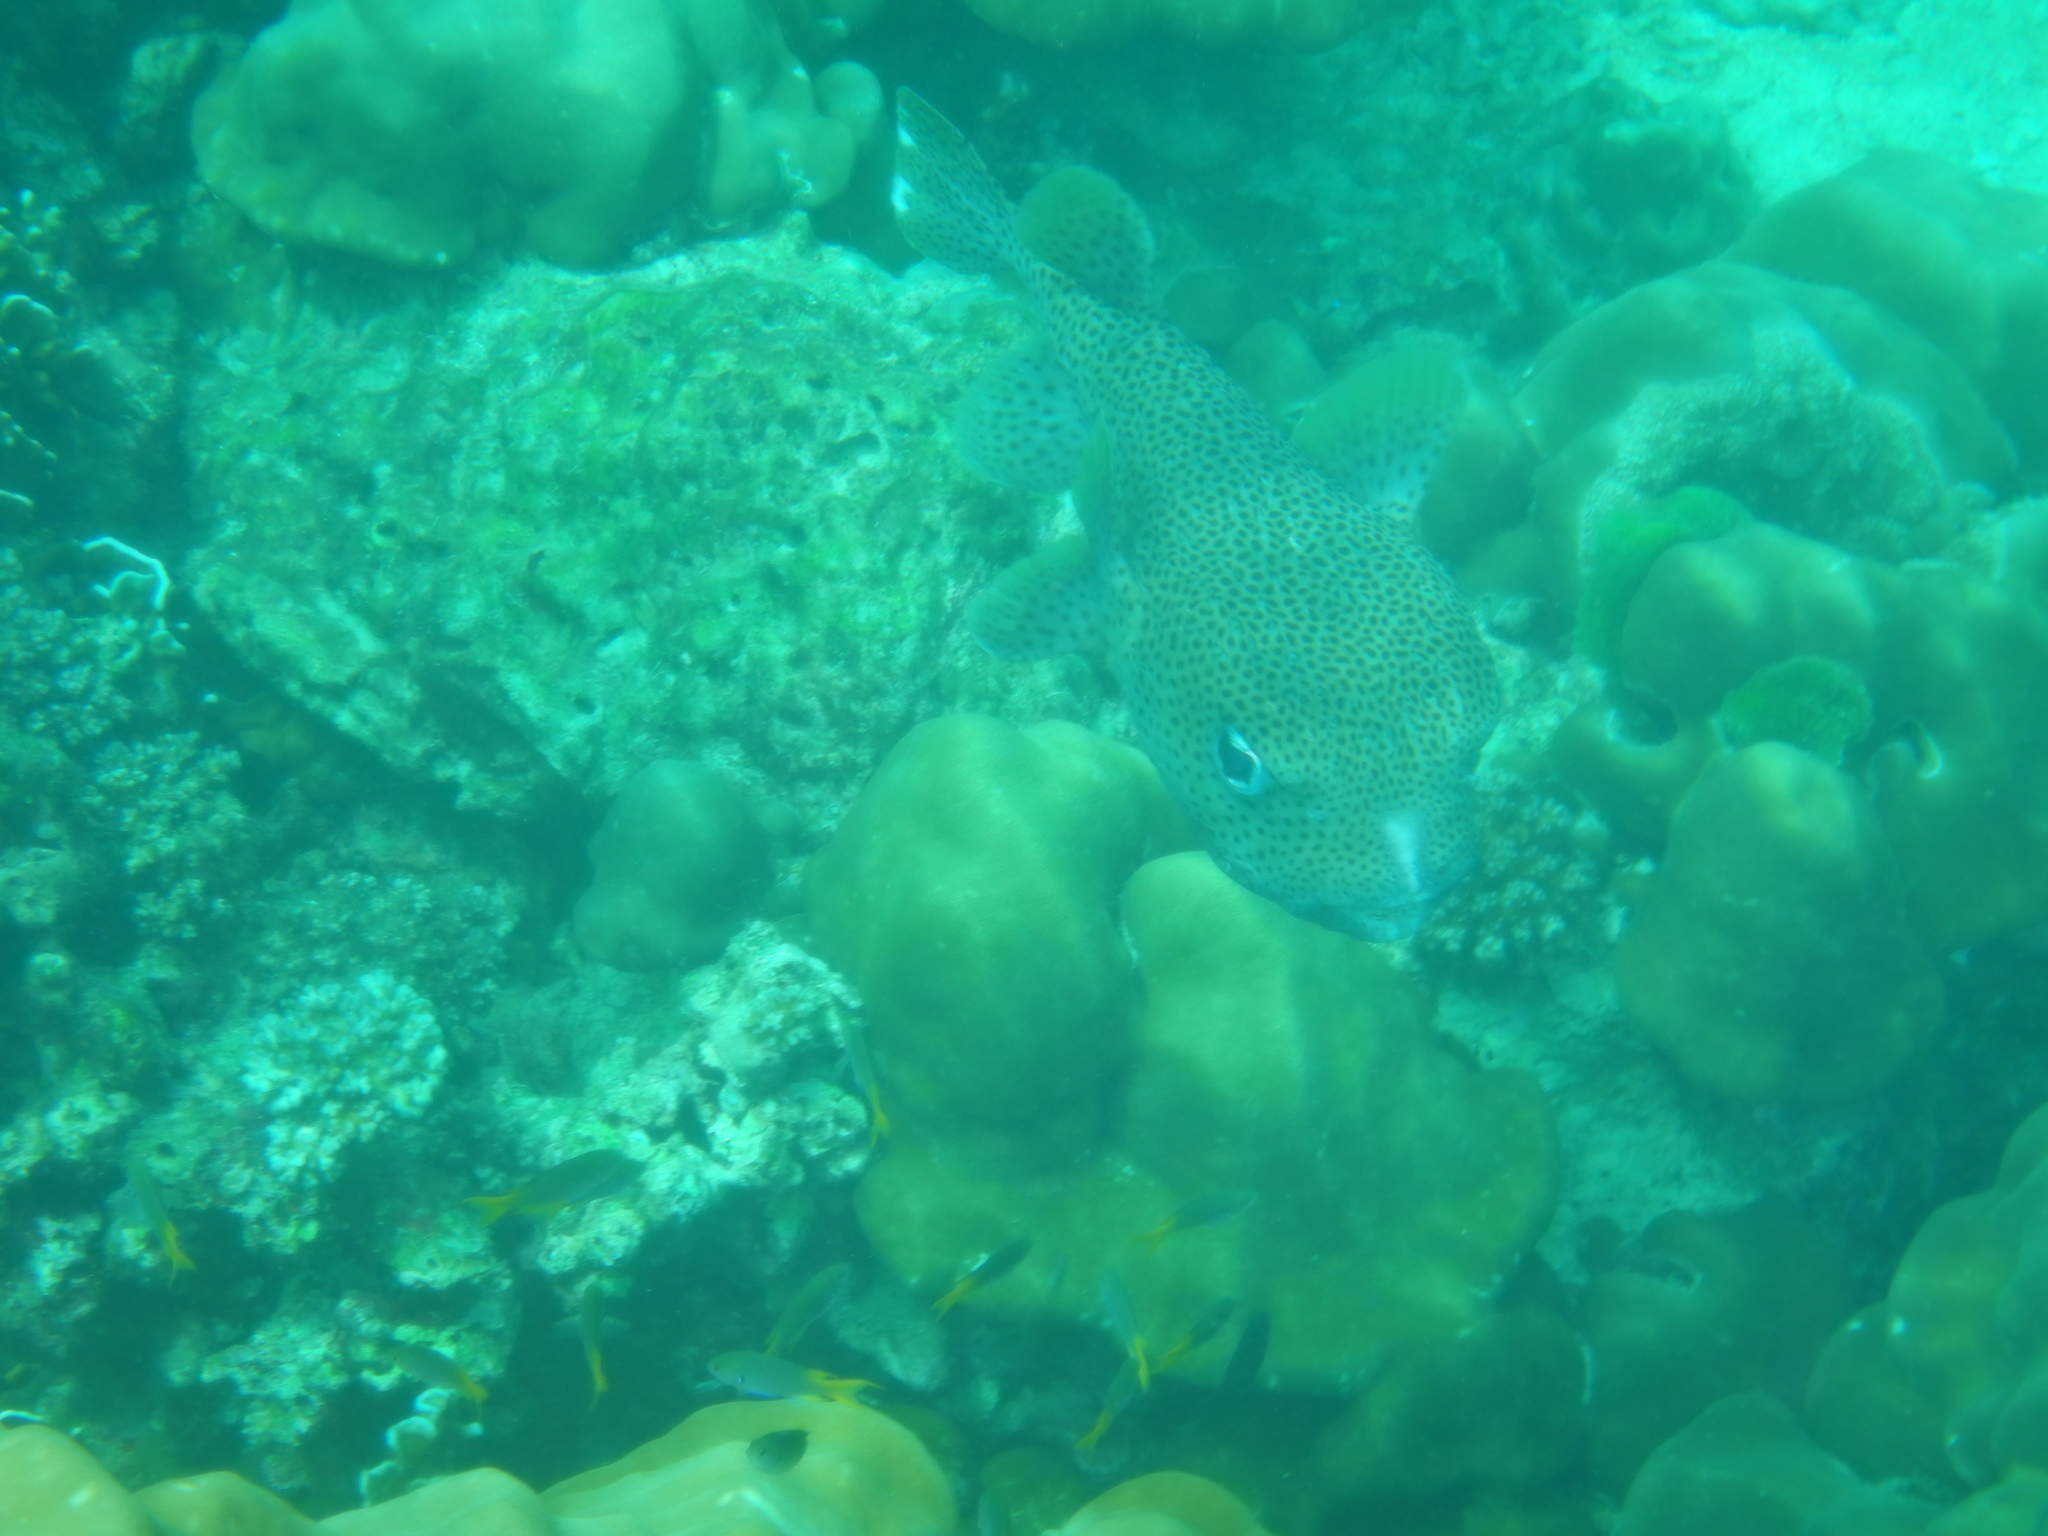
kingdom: Animalia
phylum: Chordata
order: Tetraodontiformes
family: Diodontidae
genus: Diodon
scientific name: Diodon hystrix
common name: Giant porcupinefish
